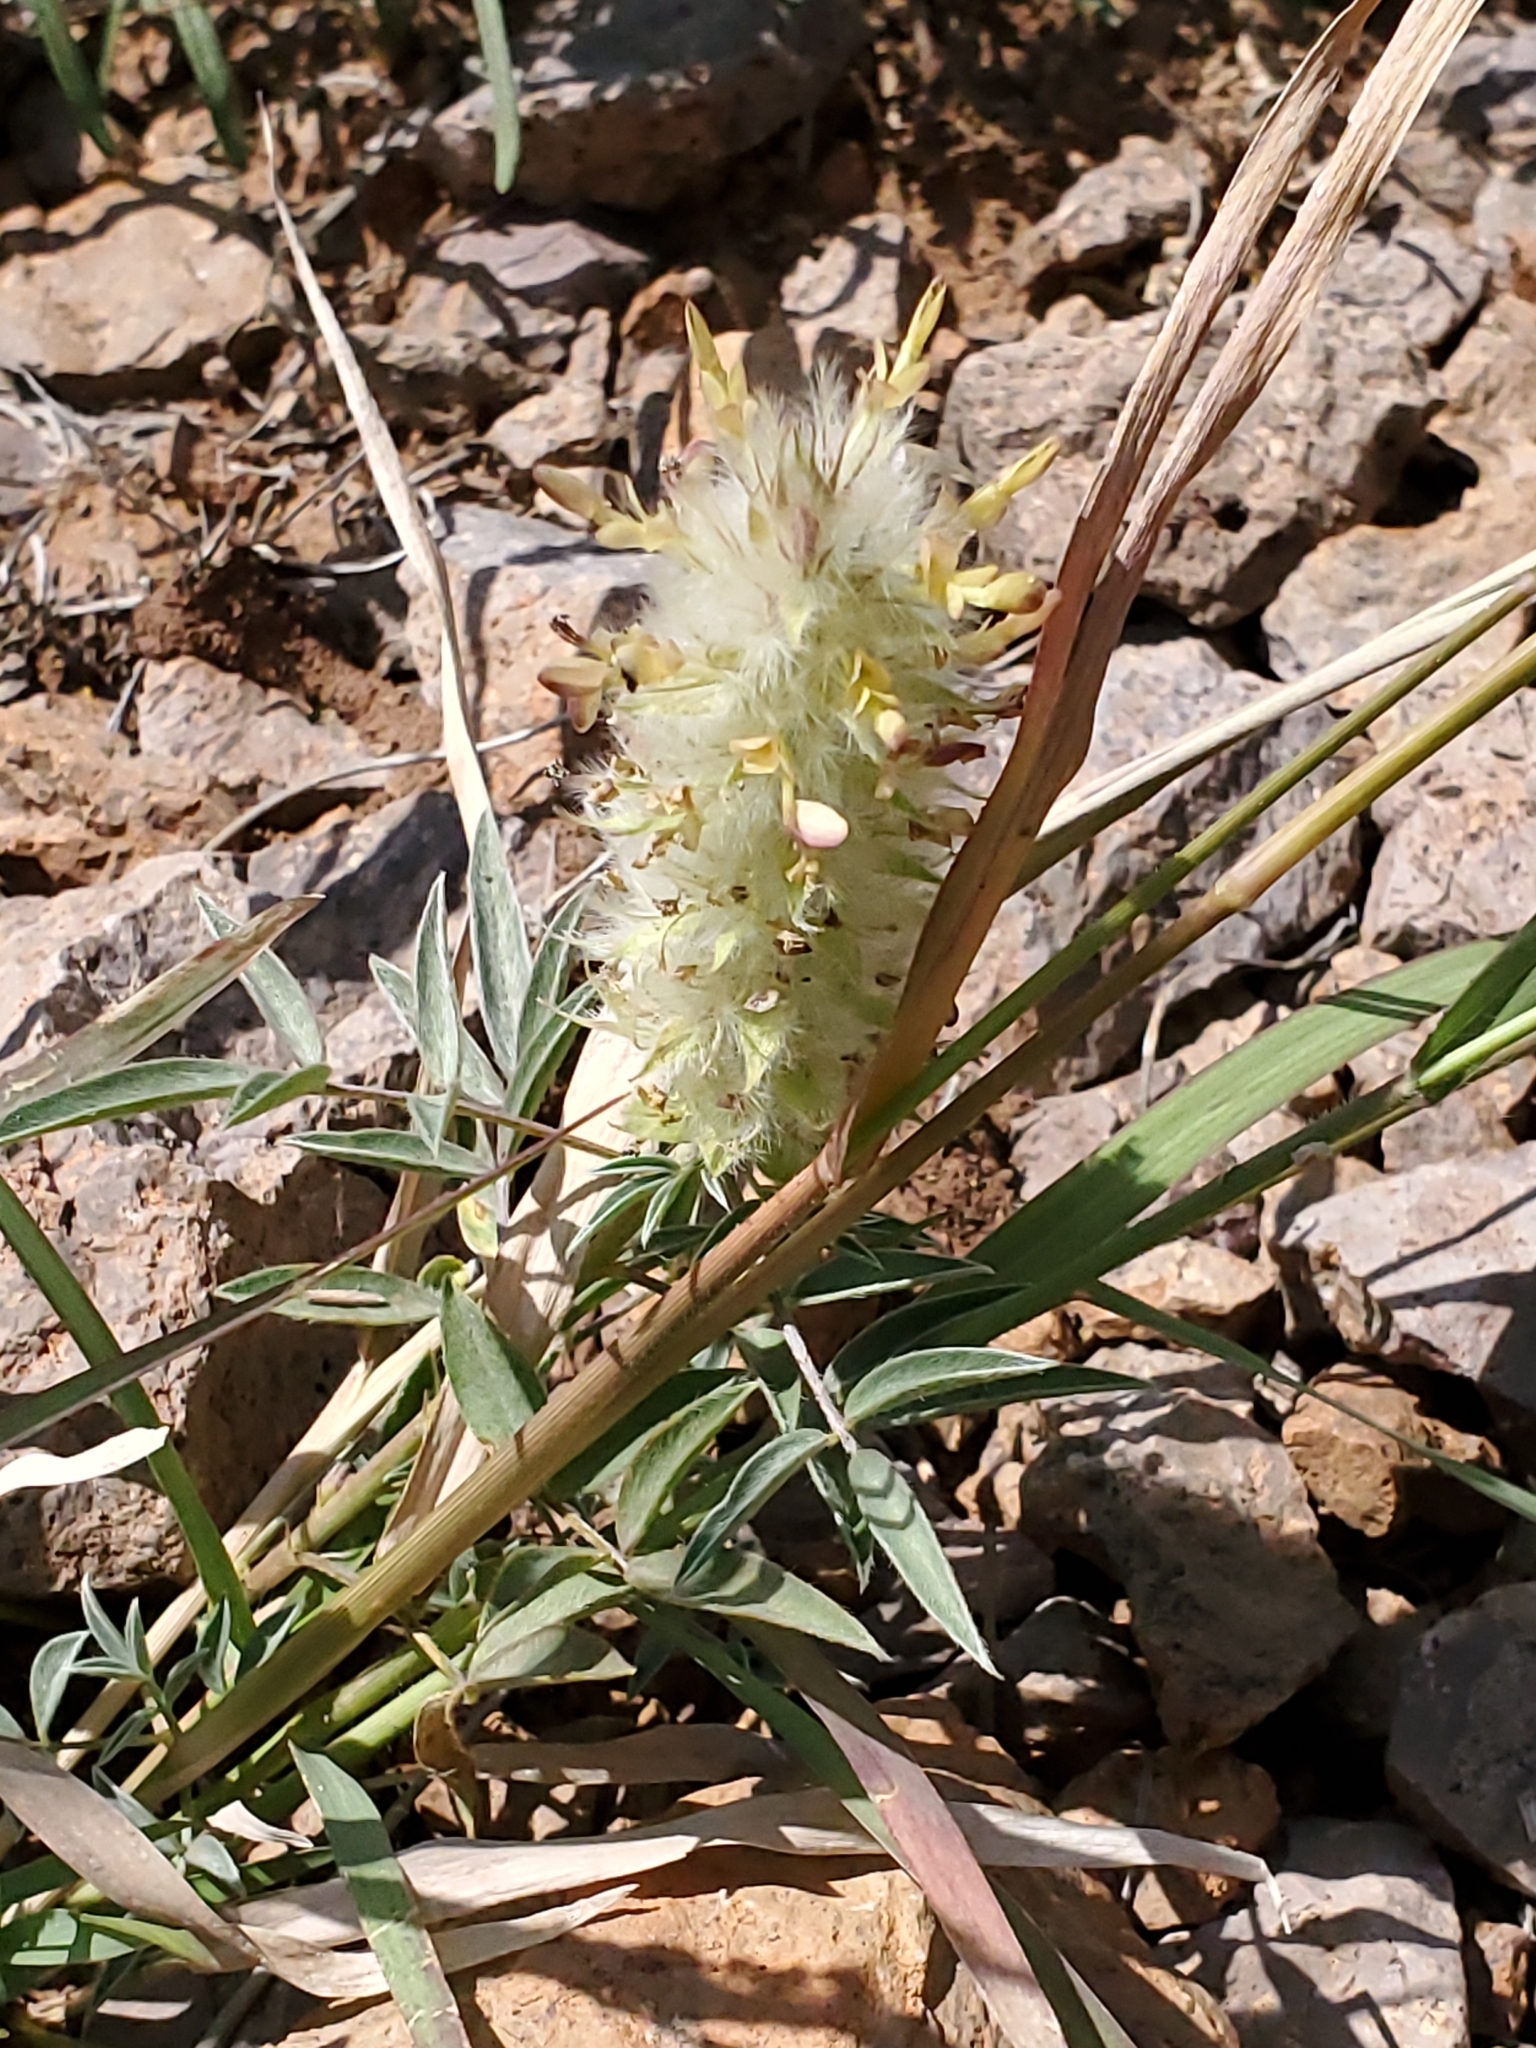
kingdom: Plantae
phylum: Tracheophyta
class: Magnoliopsida
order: Fabales
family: Fabaceae
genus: Dalea
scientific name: Dalea wrightii
